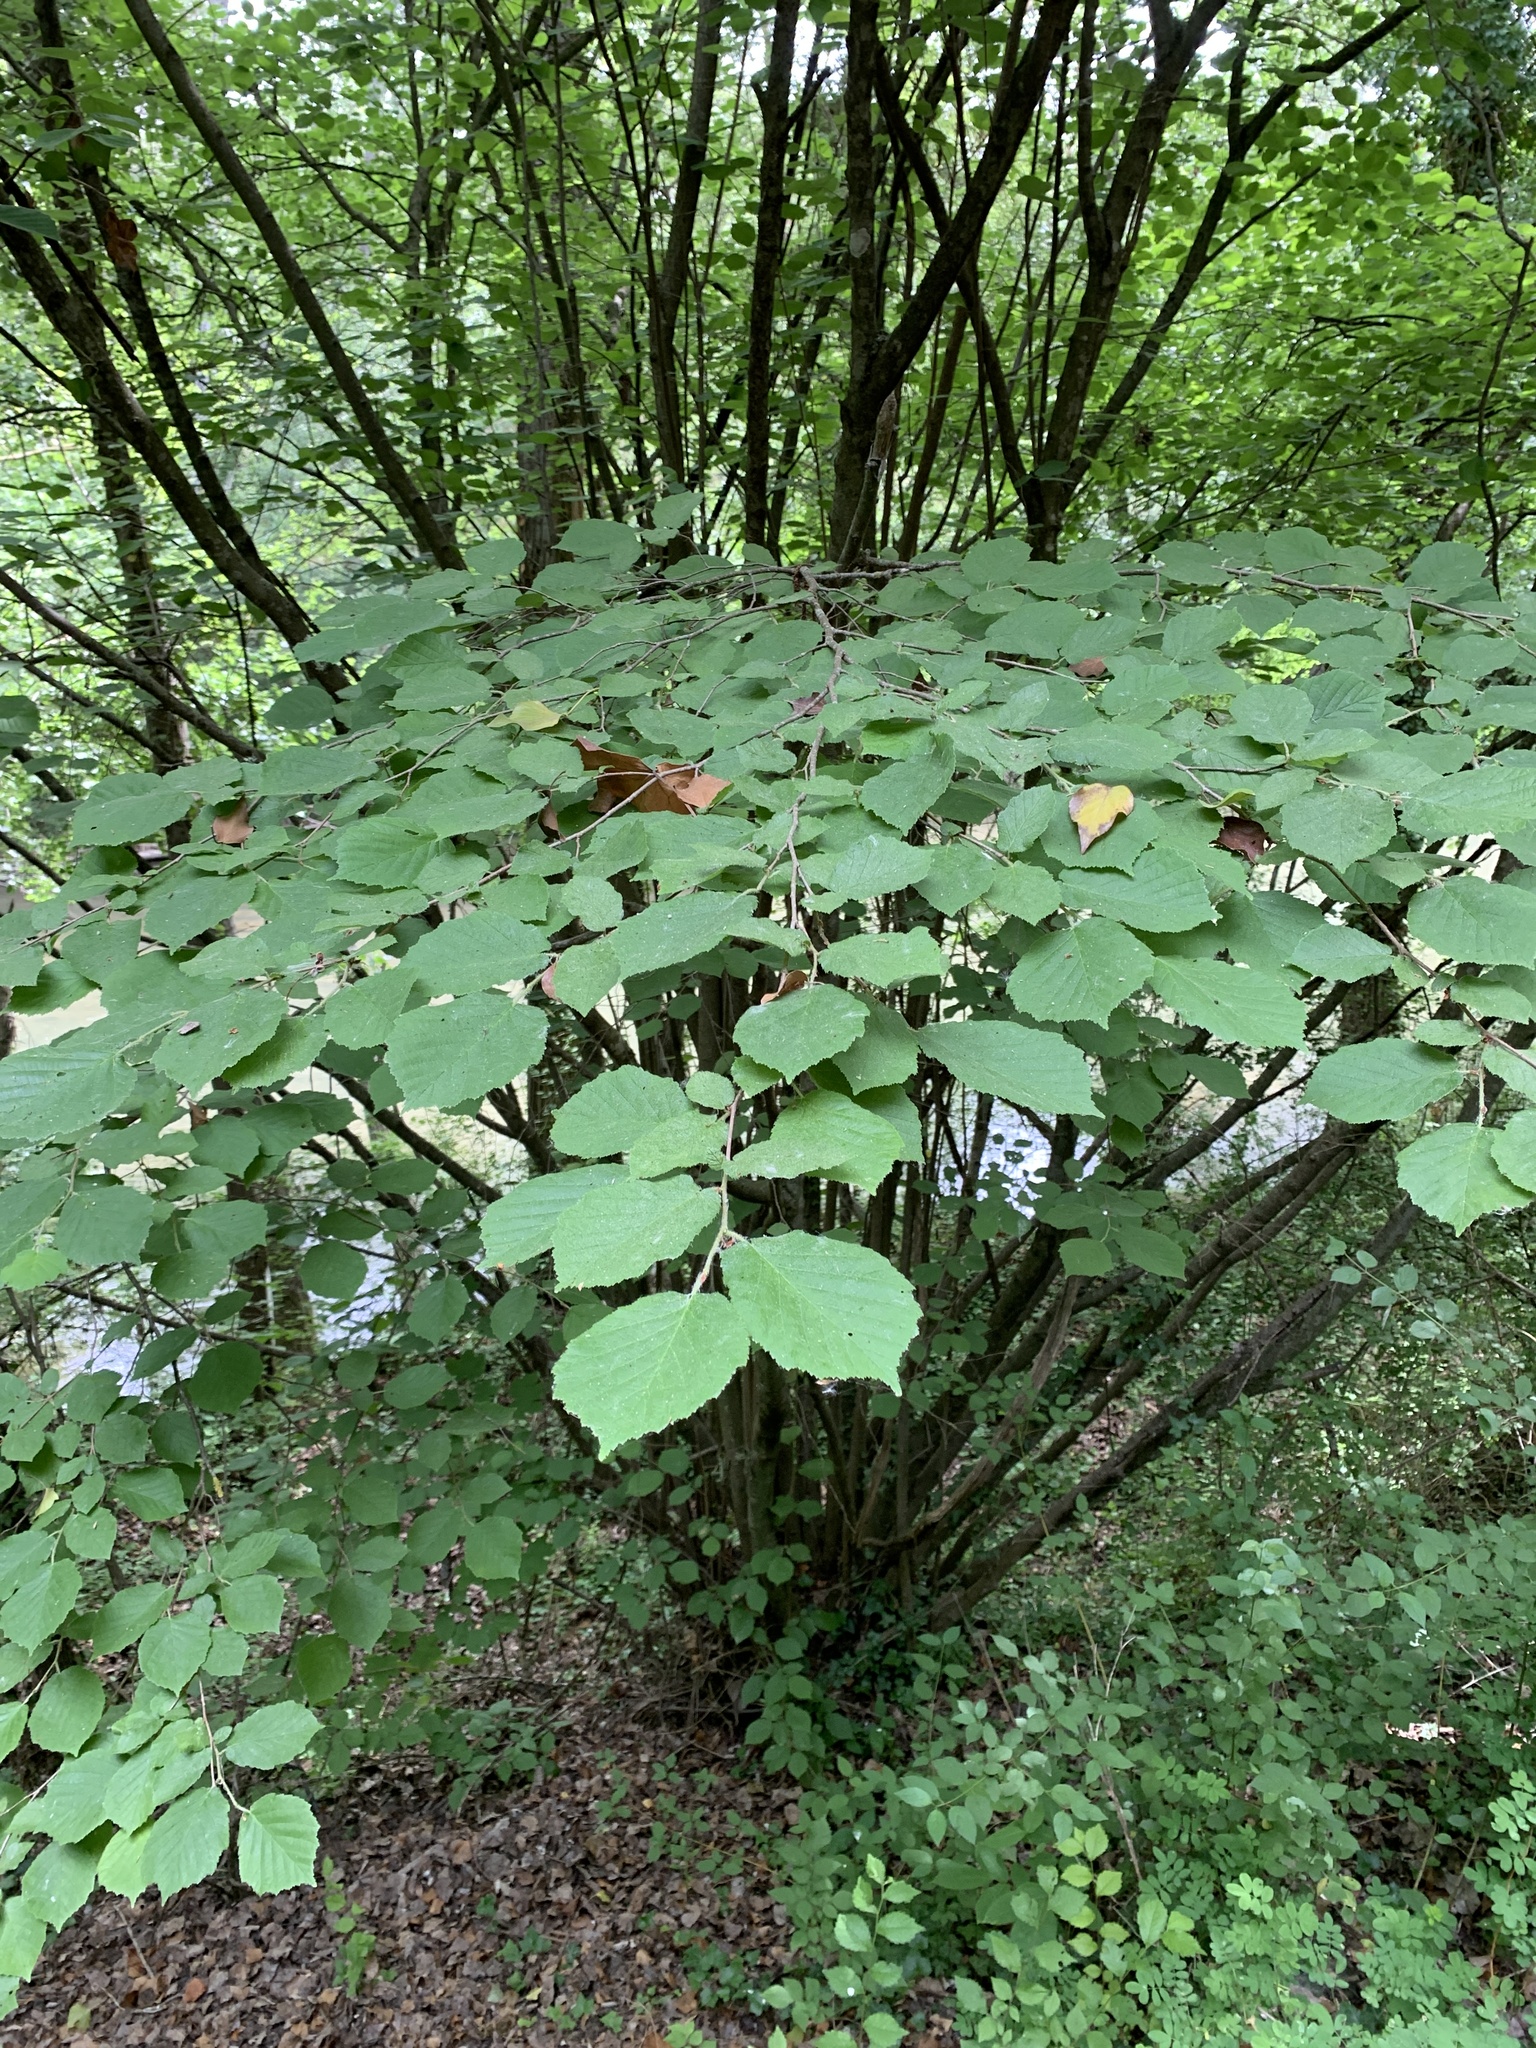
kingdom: Plantae
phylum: Tracheophyta
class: Magnoliopsida
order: Fagales
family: Betulaceae
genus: Corylus
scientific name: Corylus avellana
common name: European hazel
